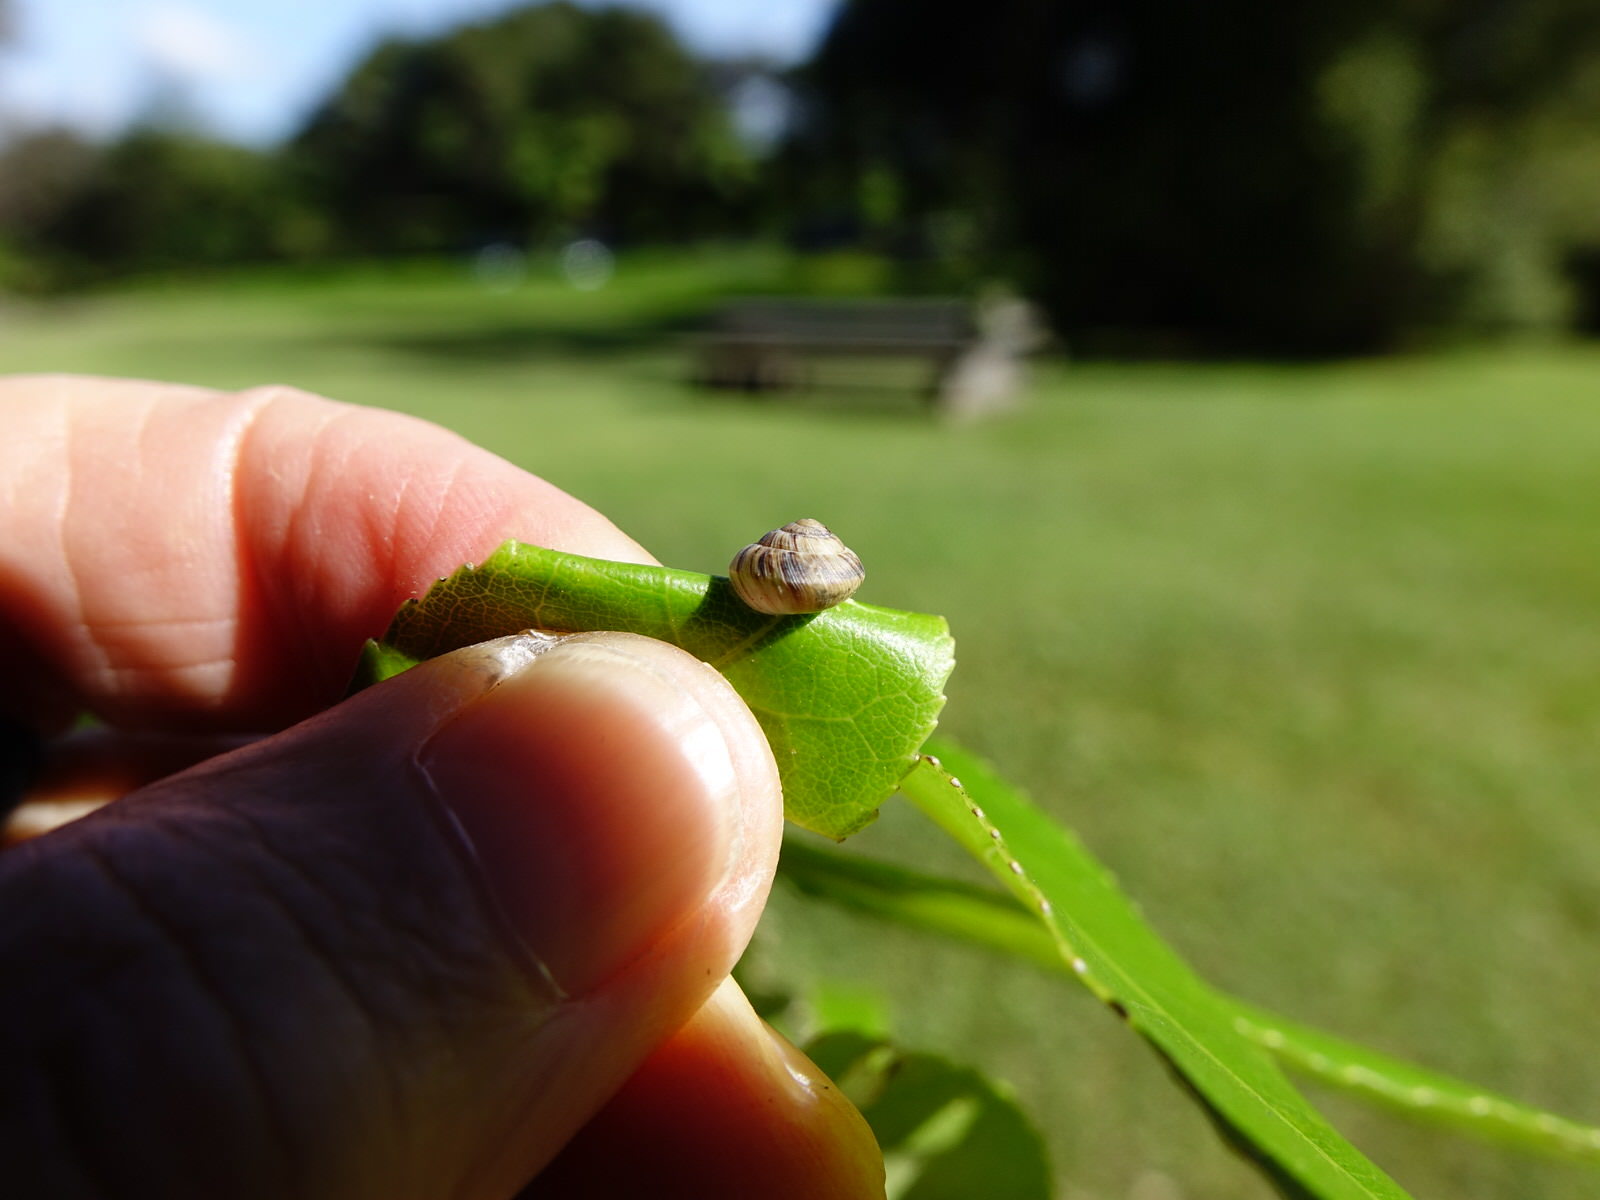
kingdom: Animalia
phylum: Mollusca
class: Gastropoda
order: Stylommatophora
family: Charopidae
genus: Serpho
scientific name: Serpho
